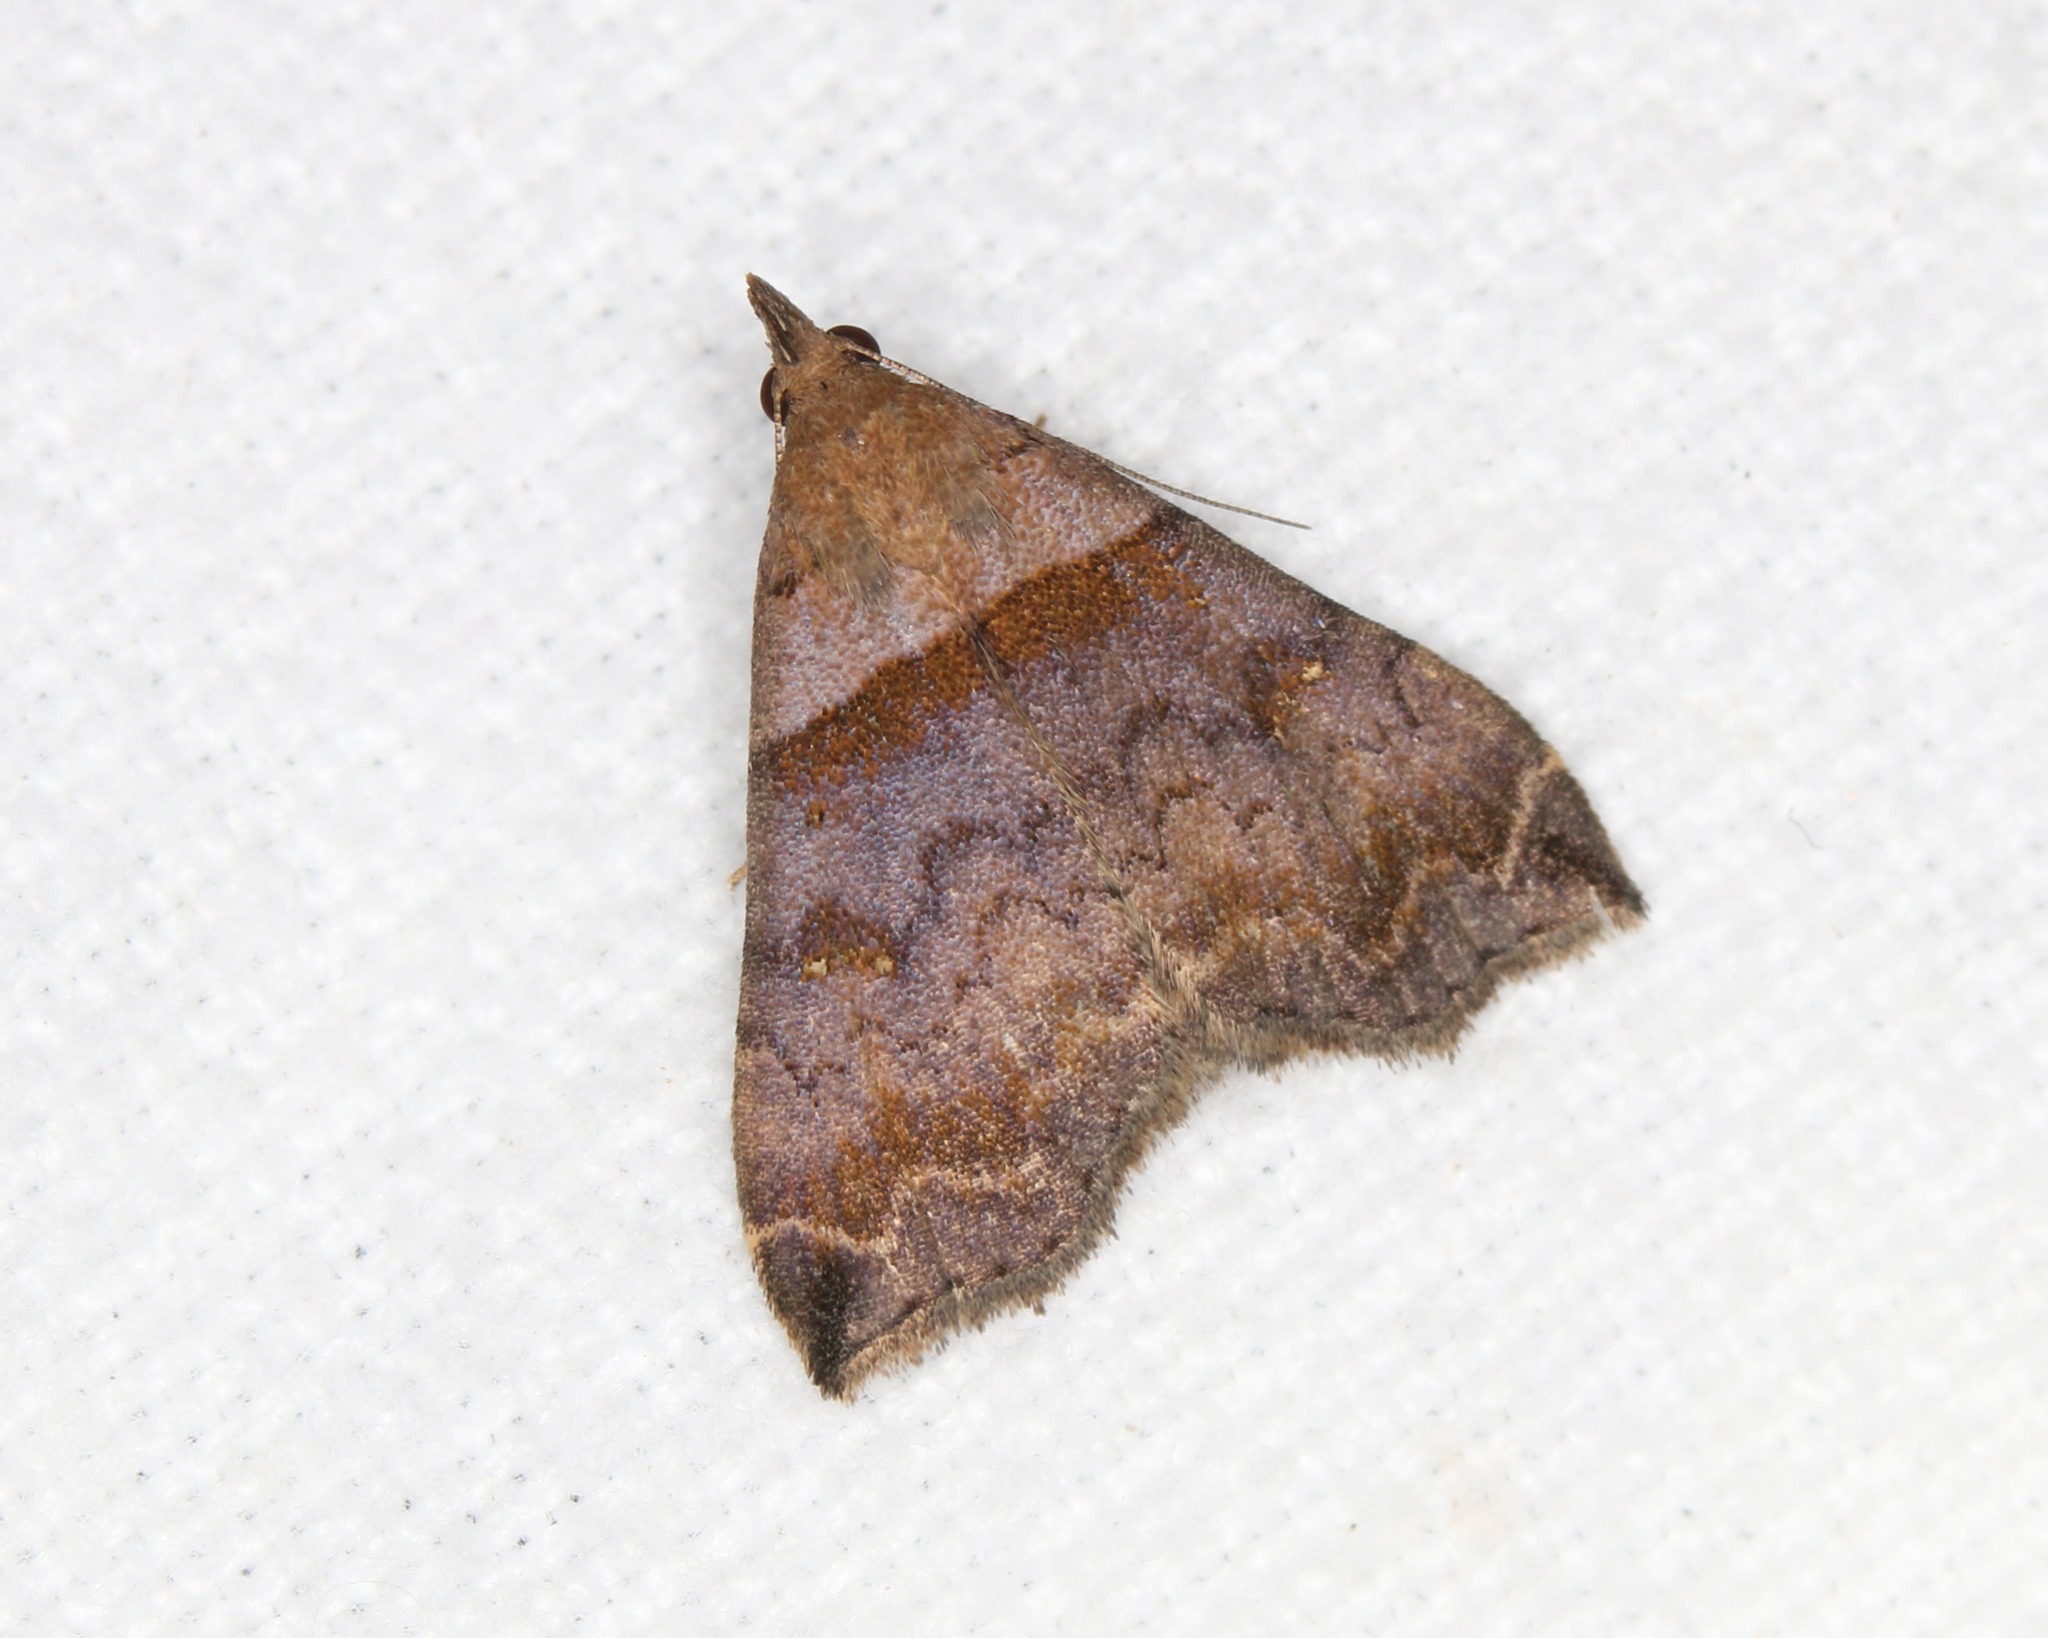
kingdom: Animalia
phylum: Arthropoda
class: Insecta
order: Lepidoptera
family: Erebidae
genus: Lascoria
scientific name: Lascoria ambigualis
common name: Ambiguous moth
